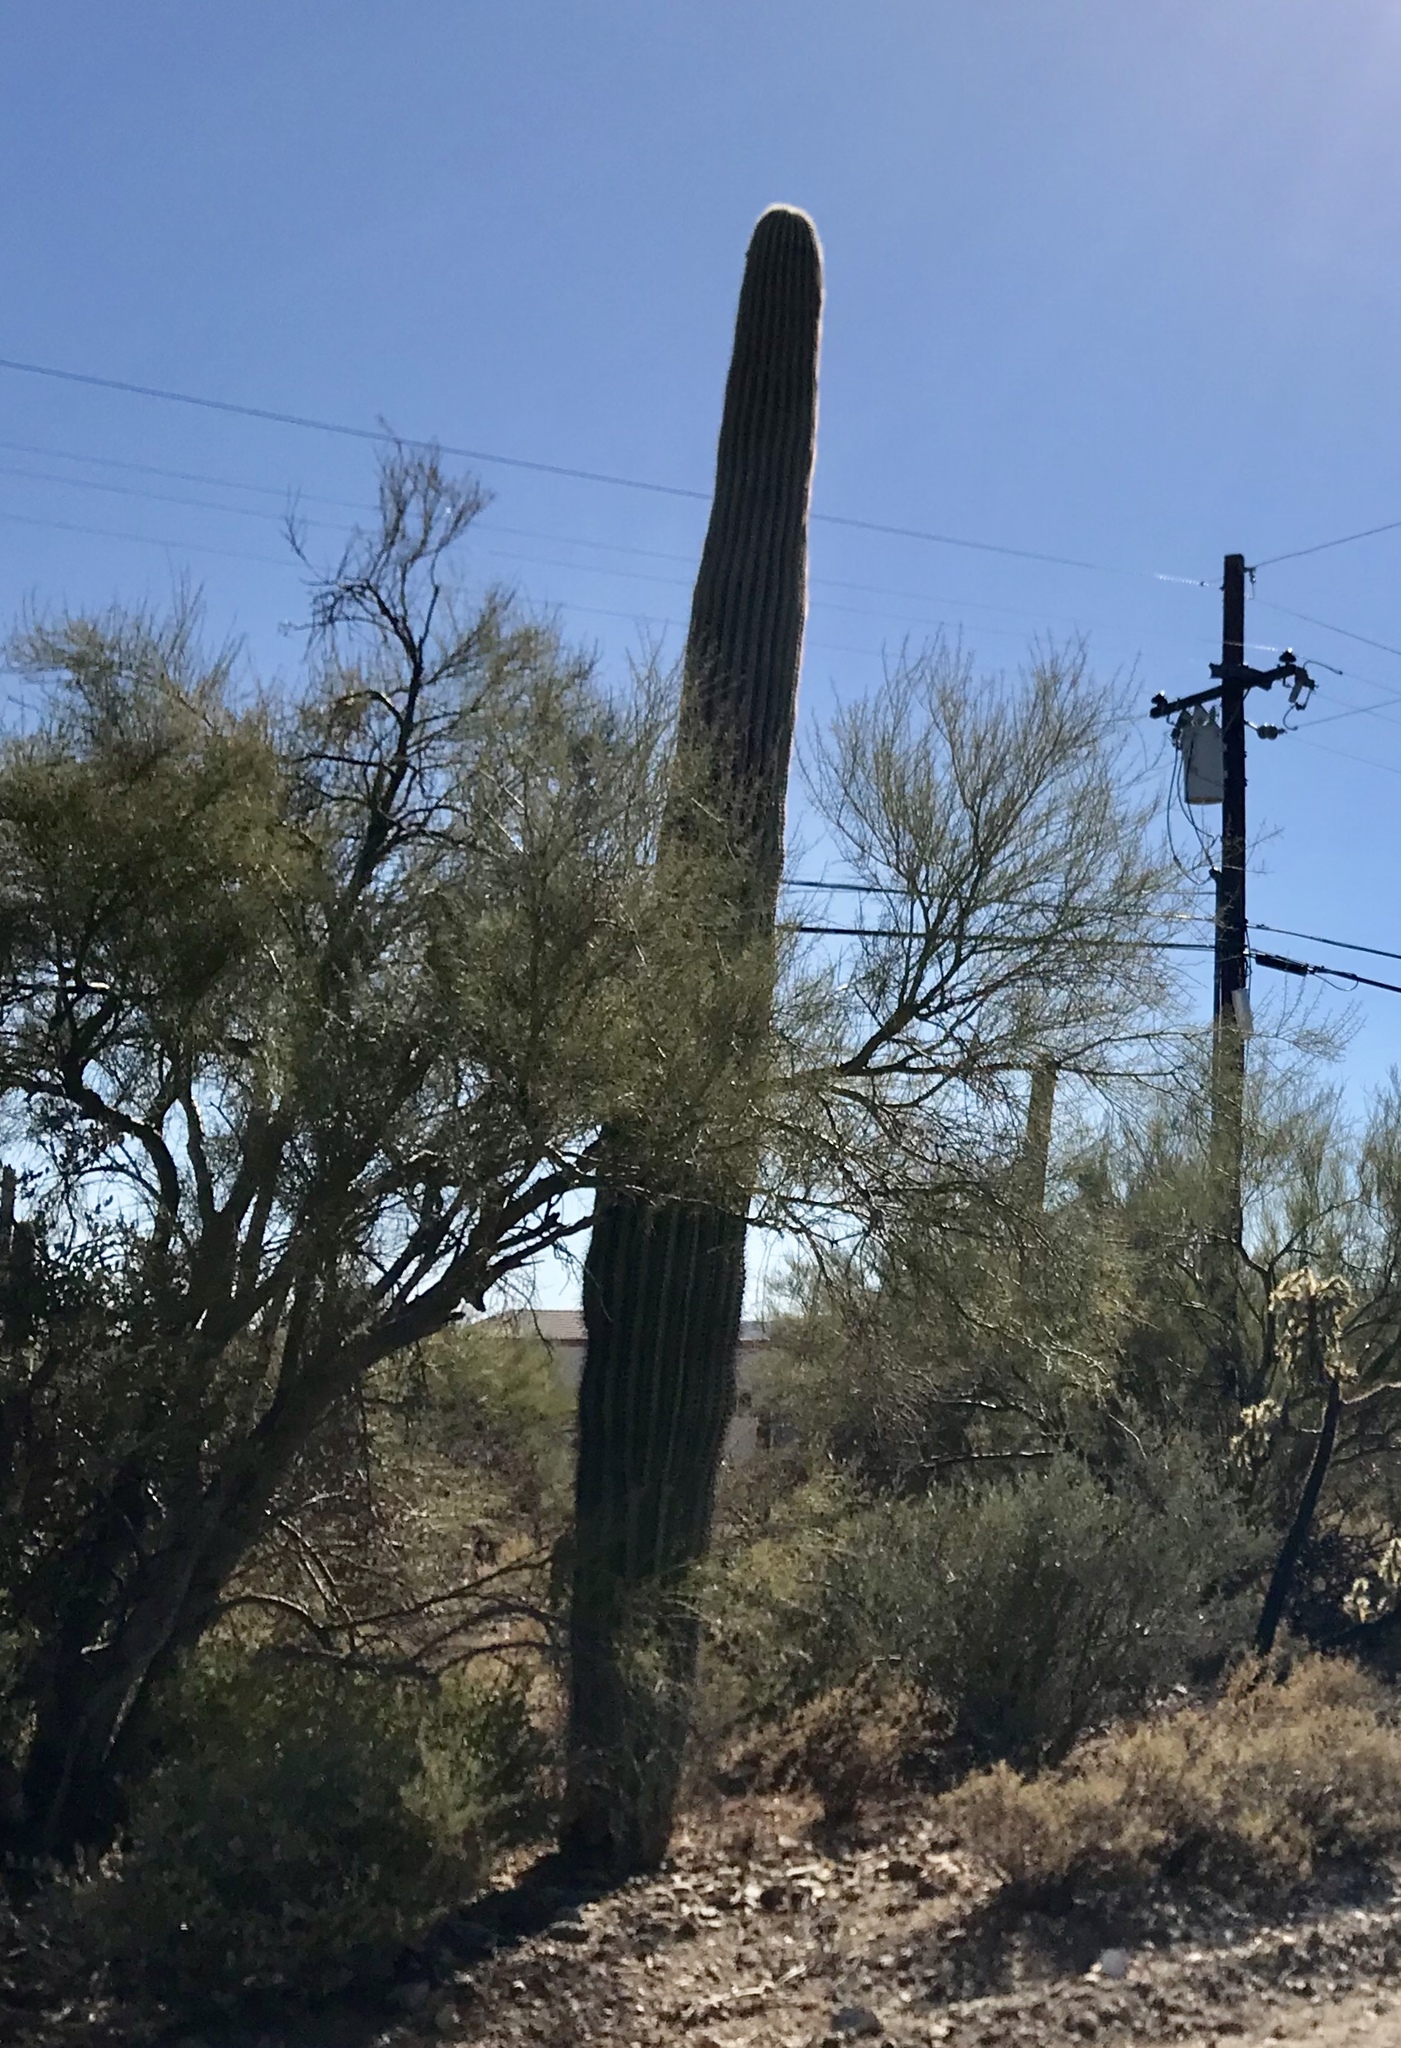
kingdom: Plantae
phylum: Tracheophyta
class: Magnoliopsida
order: Caryophyllales
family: Cactaceae
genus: Carnegiea
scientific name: Carnegiea gigantea
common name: Saguaro
